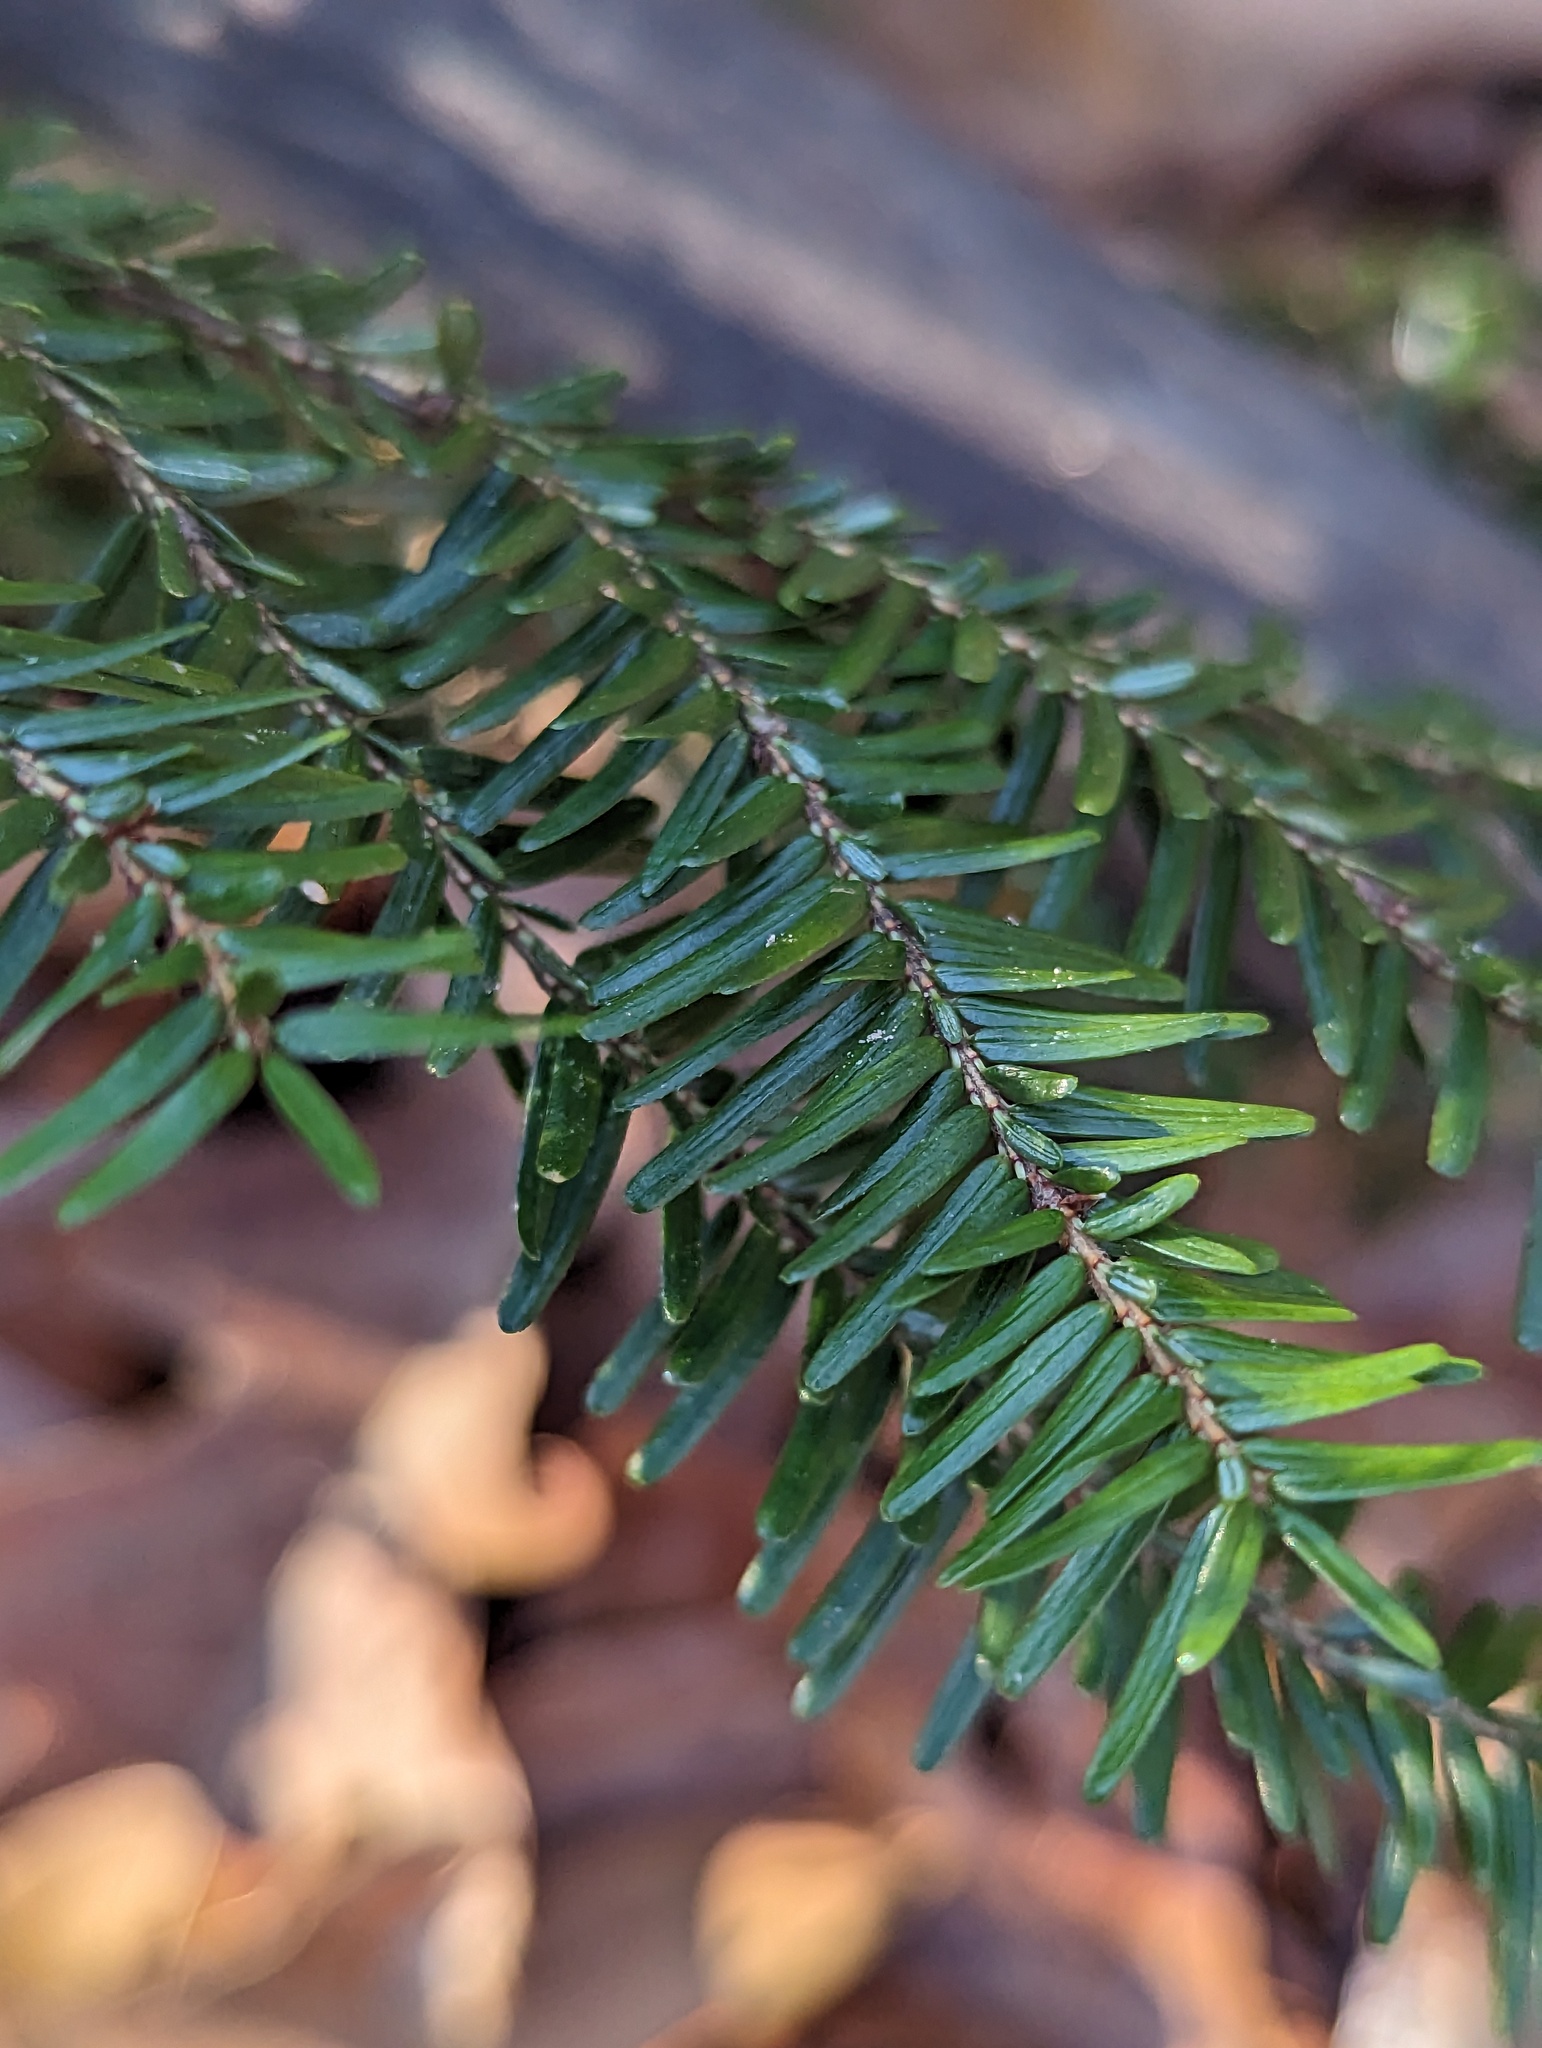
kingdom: Plantae
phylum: Tracheophyta
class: Pinopsida
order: Pinales
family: Pinaceae
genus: Tsuga
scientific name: Tsuga canadensis
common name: Eastern hemlock
